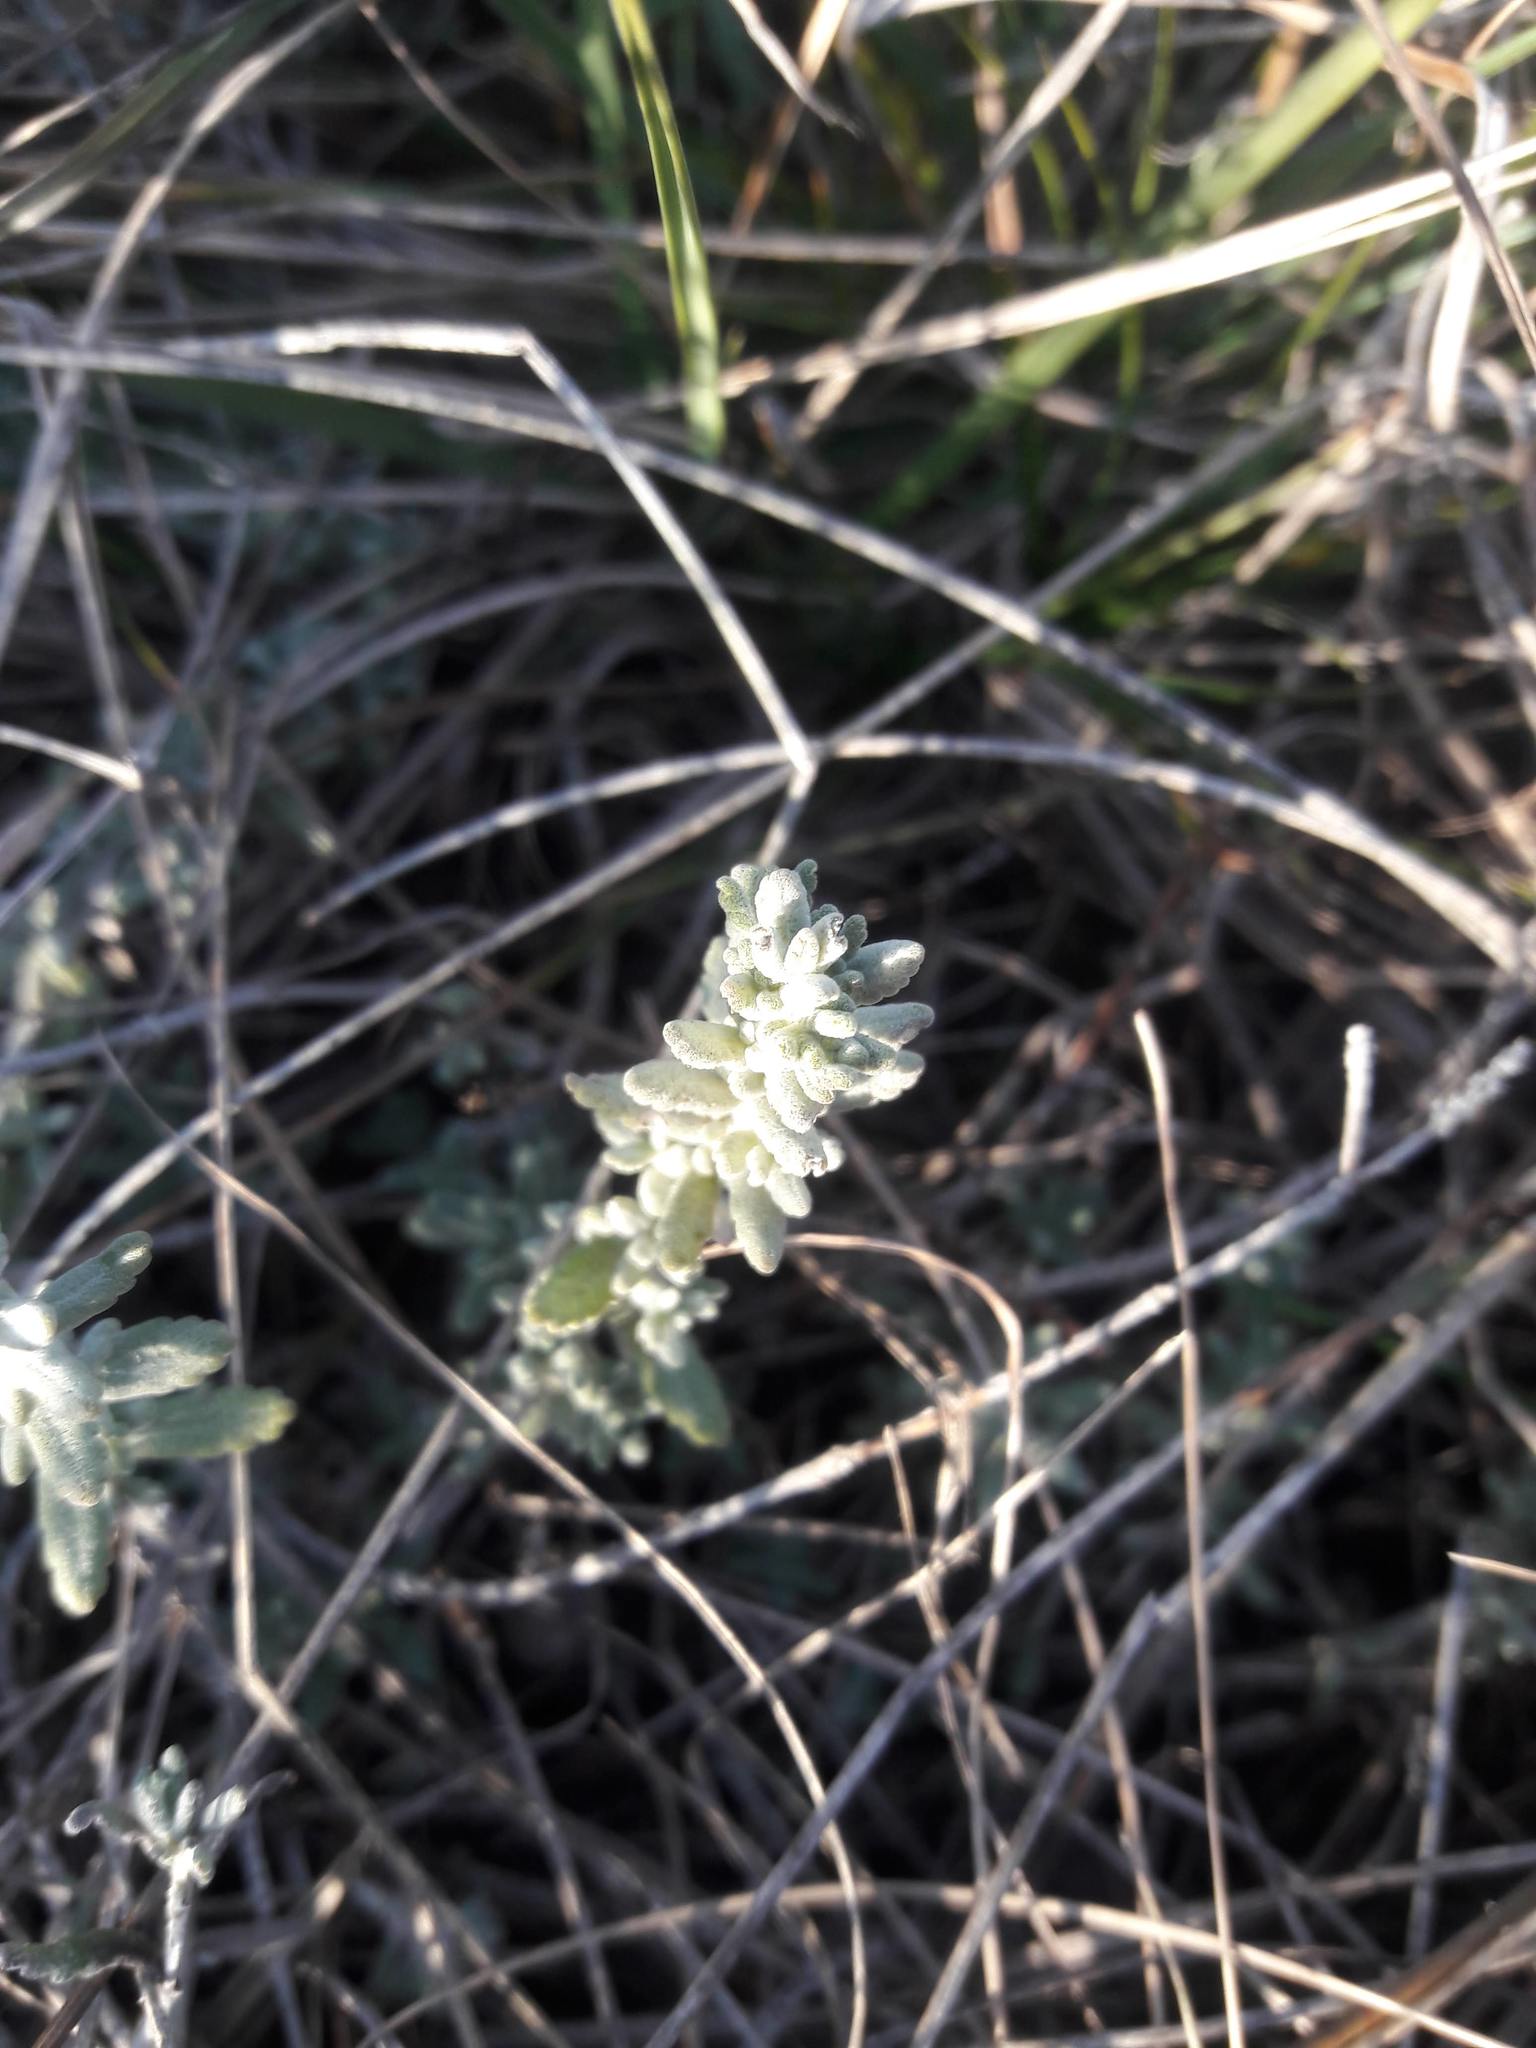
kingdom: Plantae
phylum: Tracheophyta
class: Magnoliopsida
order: Lamiales
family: Lamiaceae
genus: Teucrium
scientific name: Teucrium polium
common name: Poley
